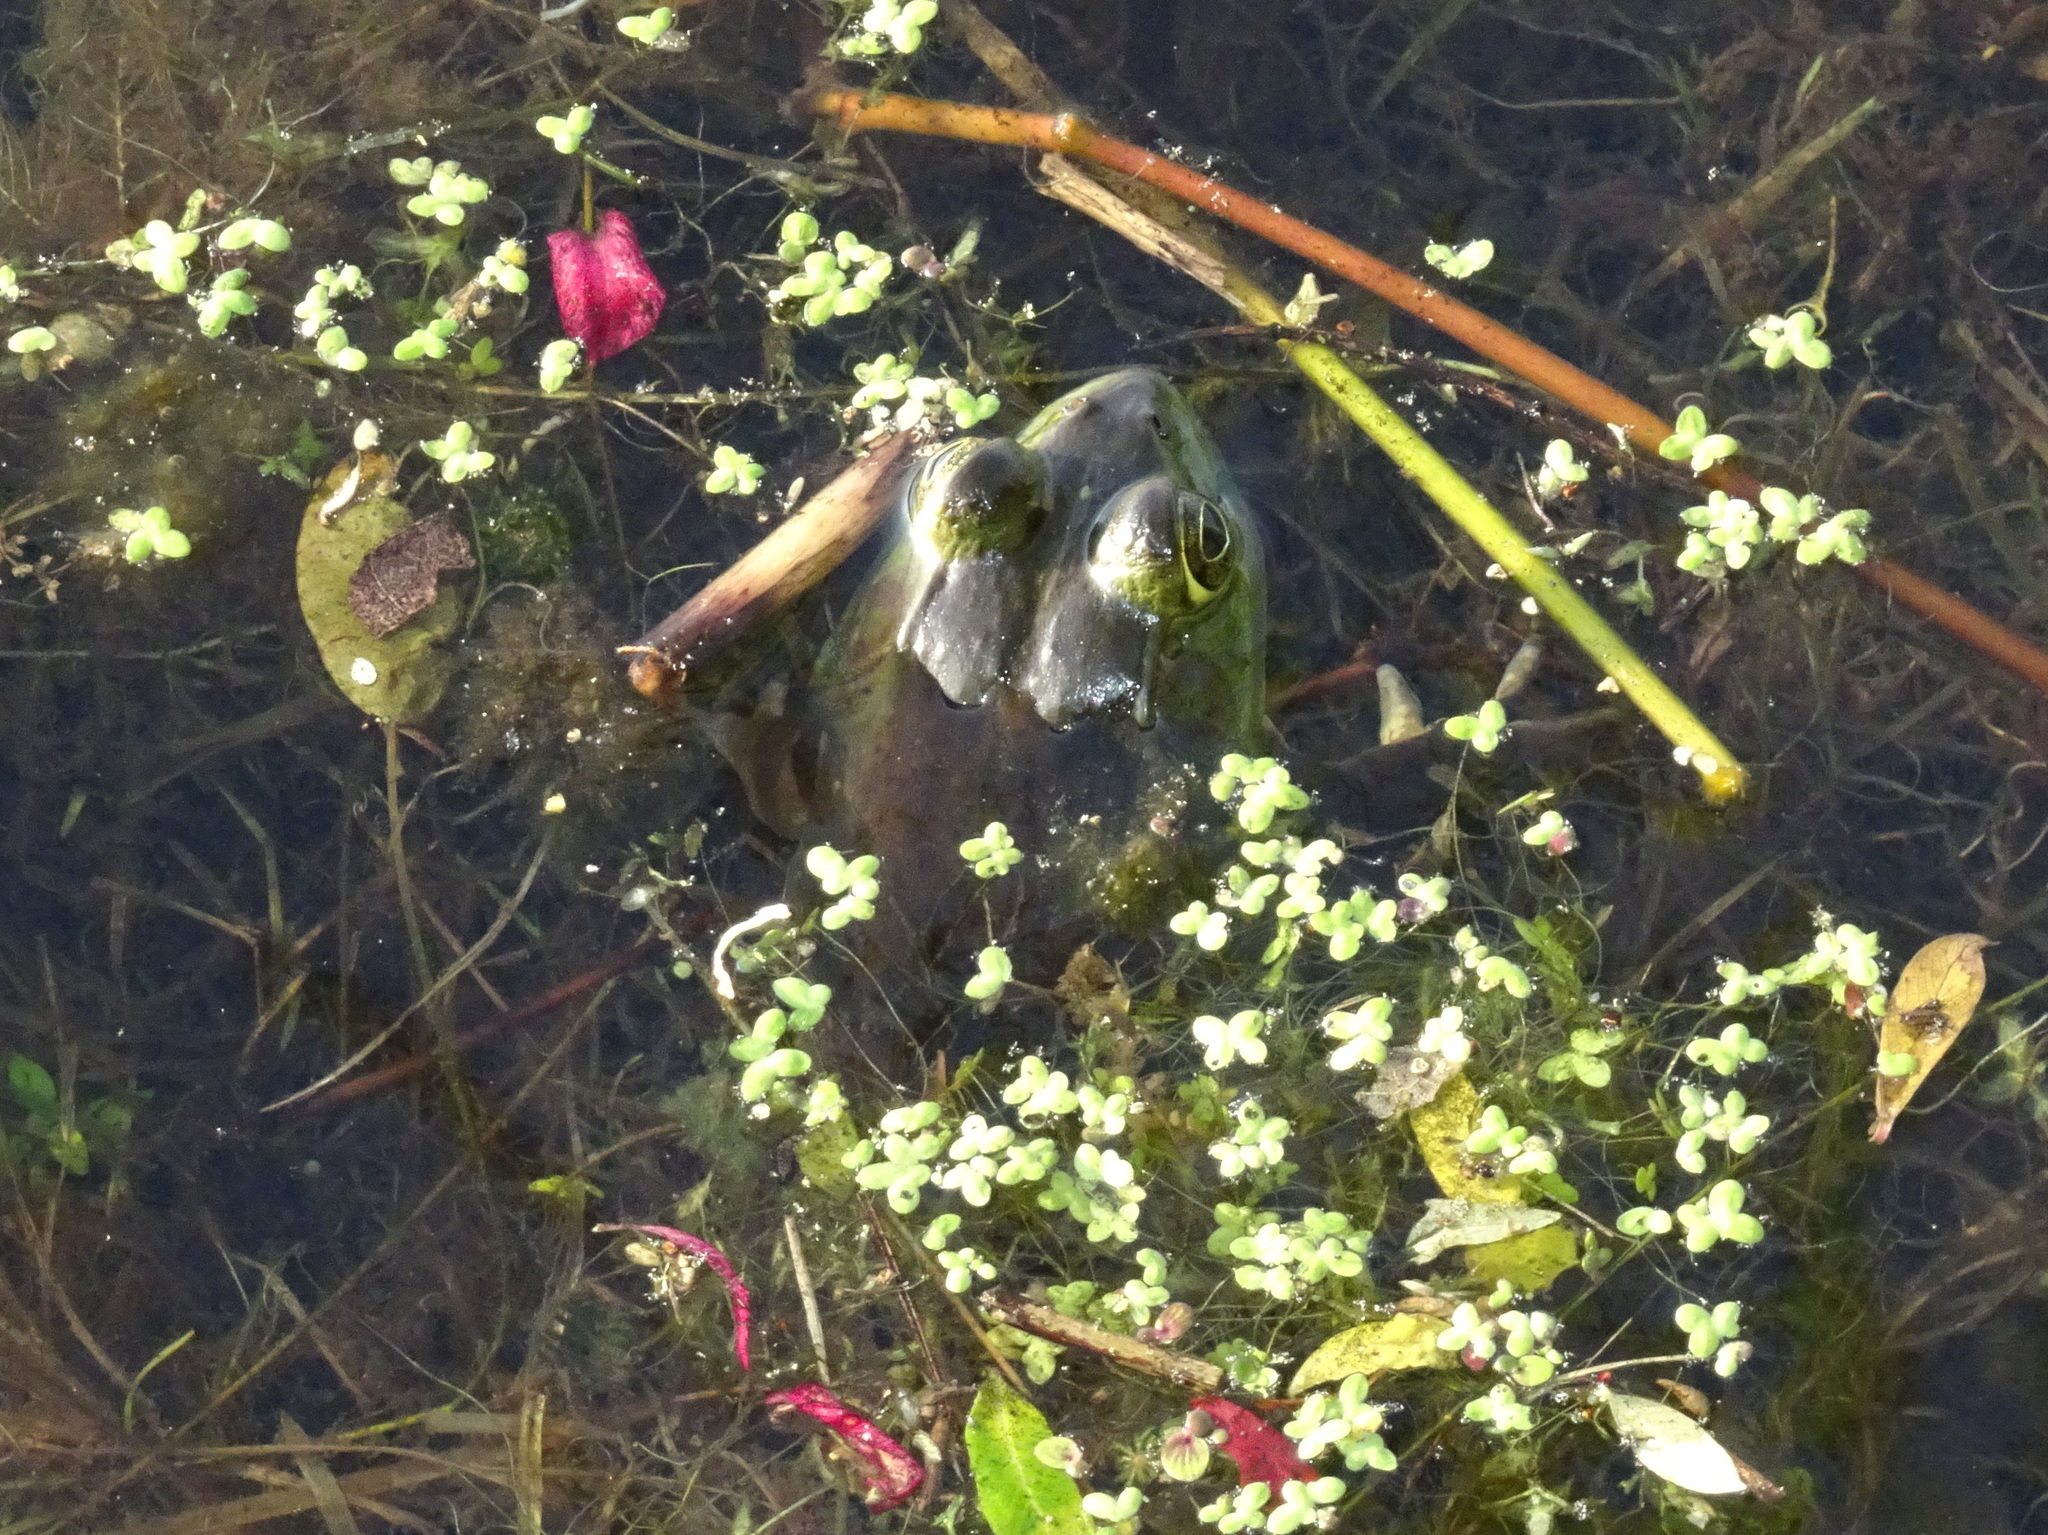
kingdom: Animalia
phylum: Chordata
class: Amphibia
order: Anura
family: Ranidae
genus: Lithobates
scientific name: Lithobates catesbeianus
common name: American bullfrog
